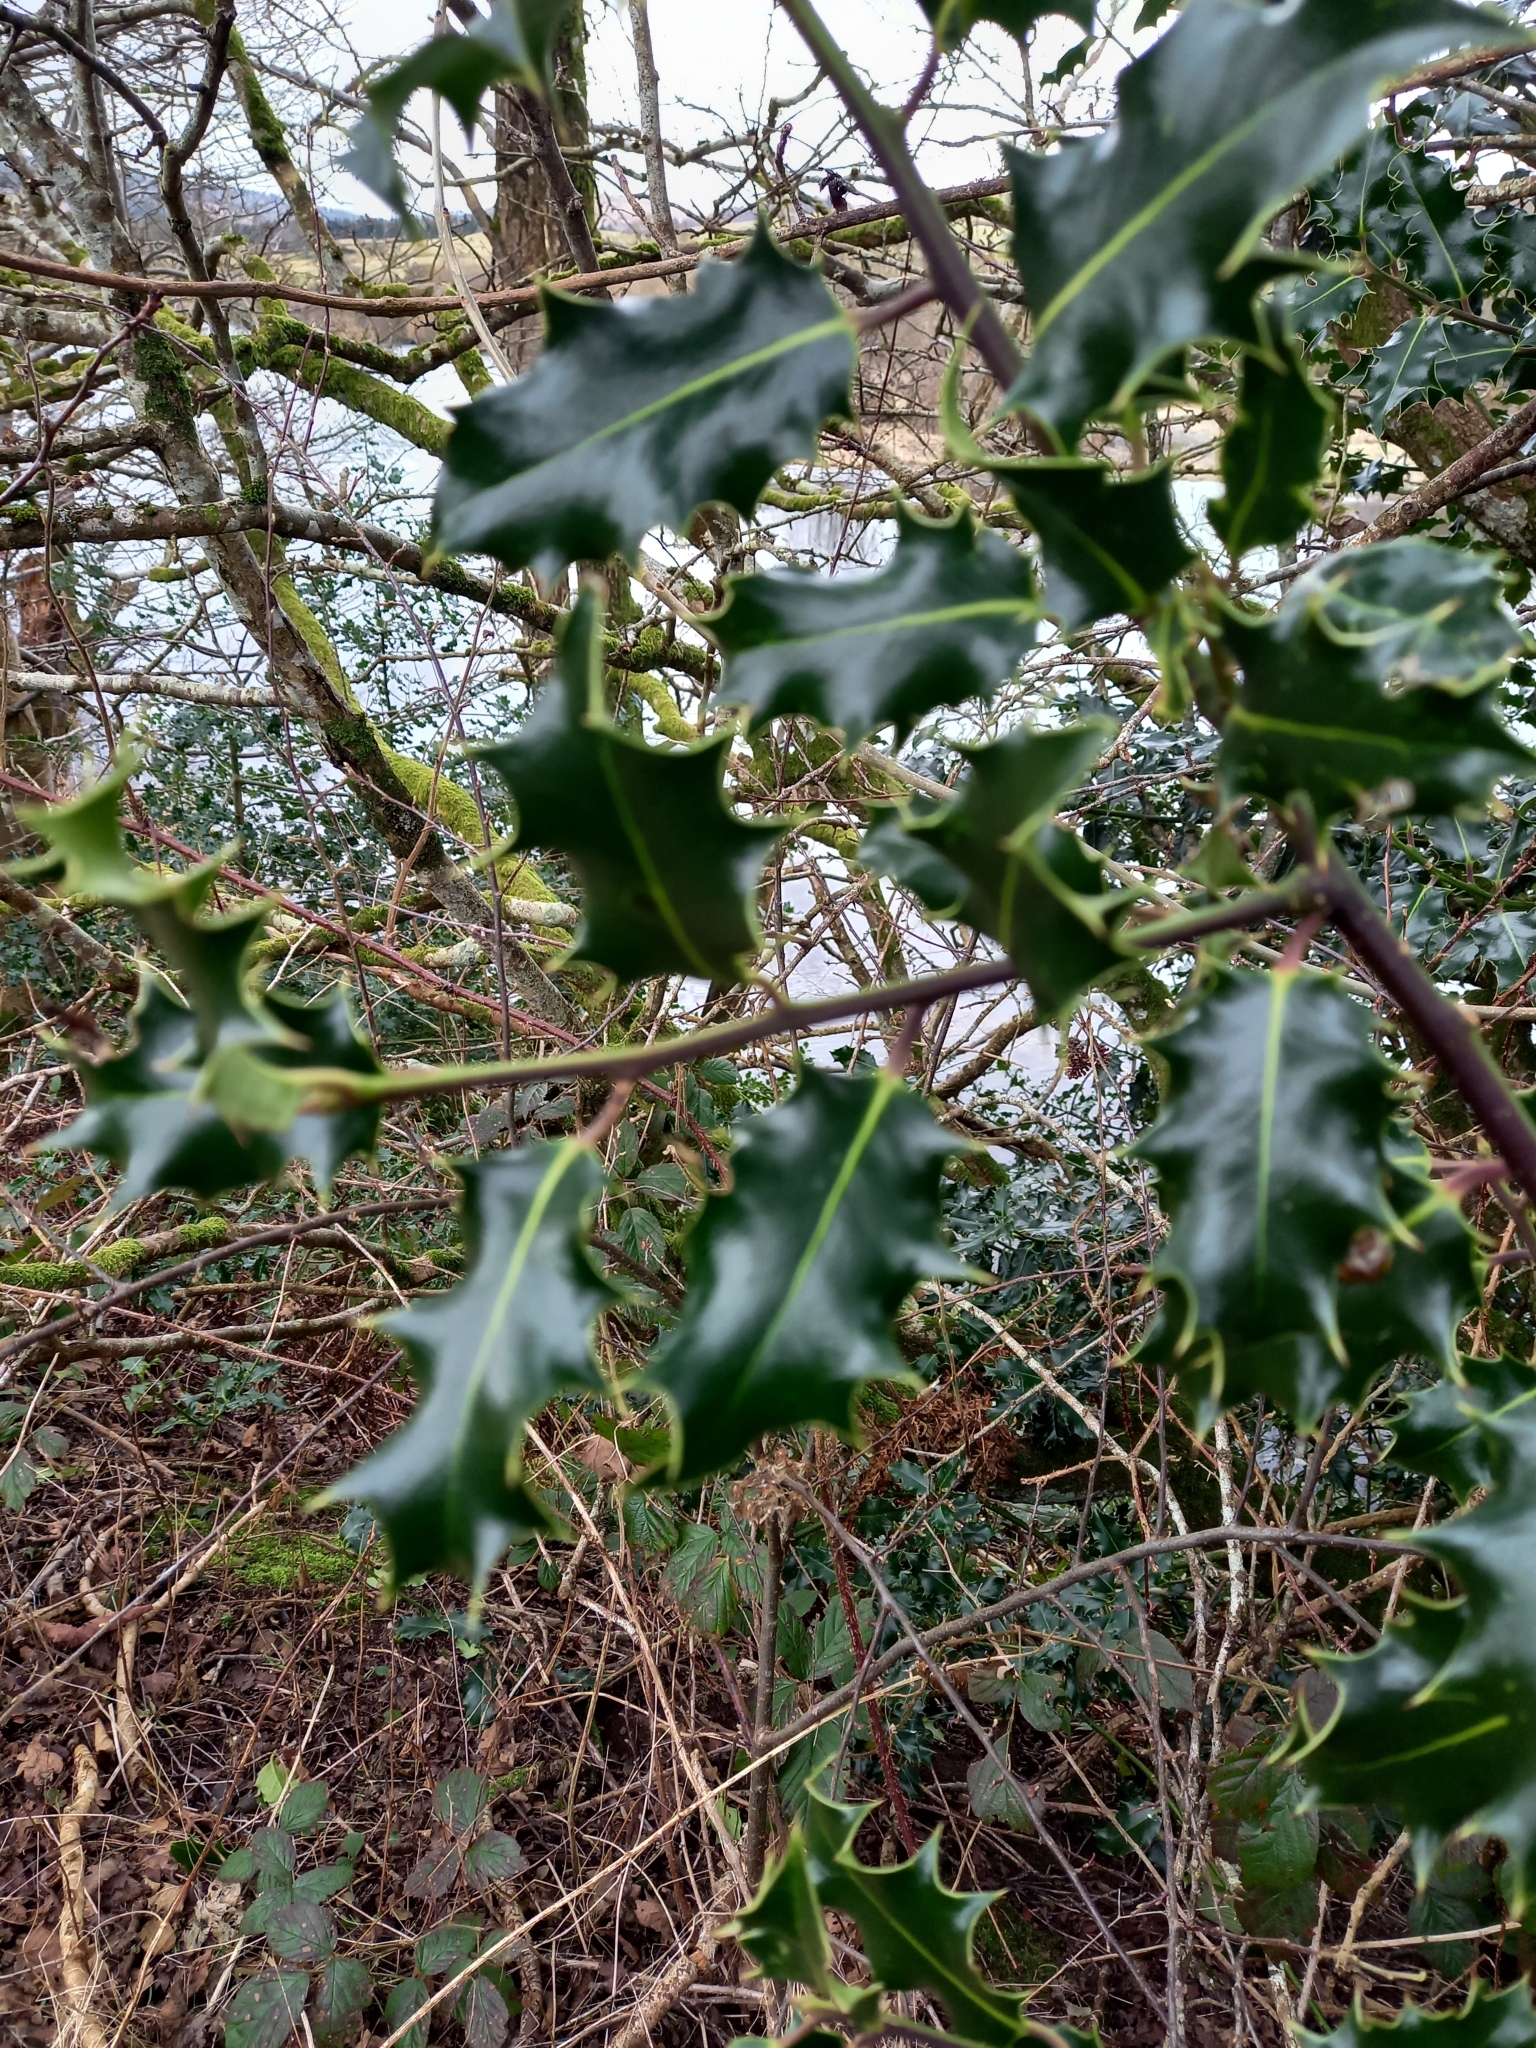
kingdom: Plantae
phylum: Tracheophyta
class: Magnoliopsida
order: Aquifoliales
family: Aquifoliaceae
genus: Ilex
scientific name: Ilex aquifolium
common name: English holly
